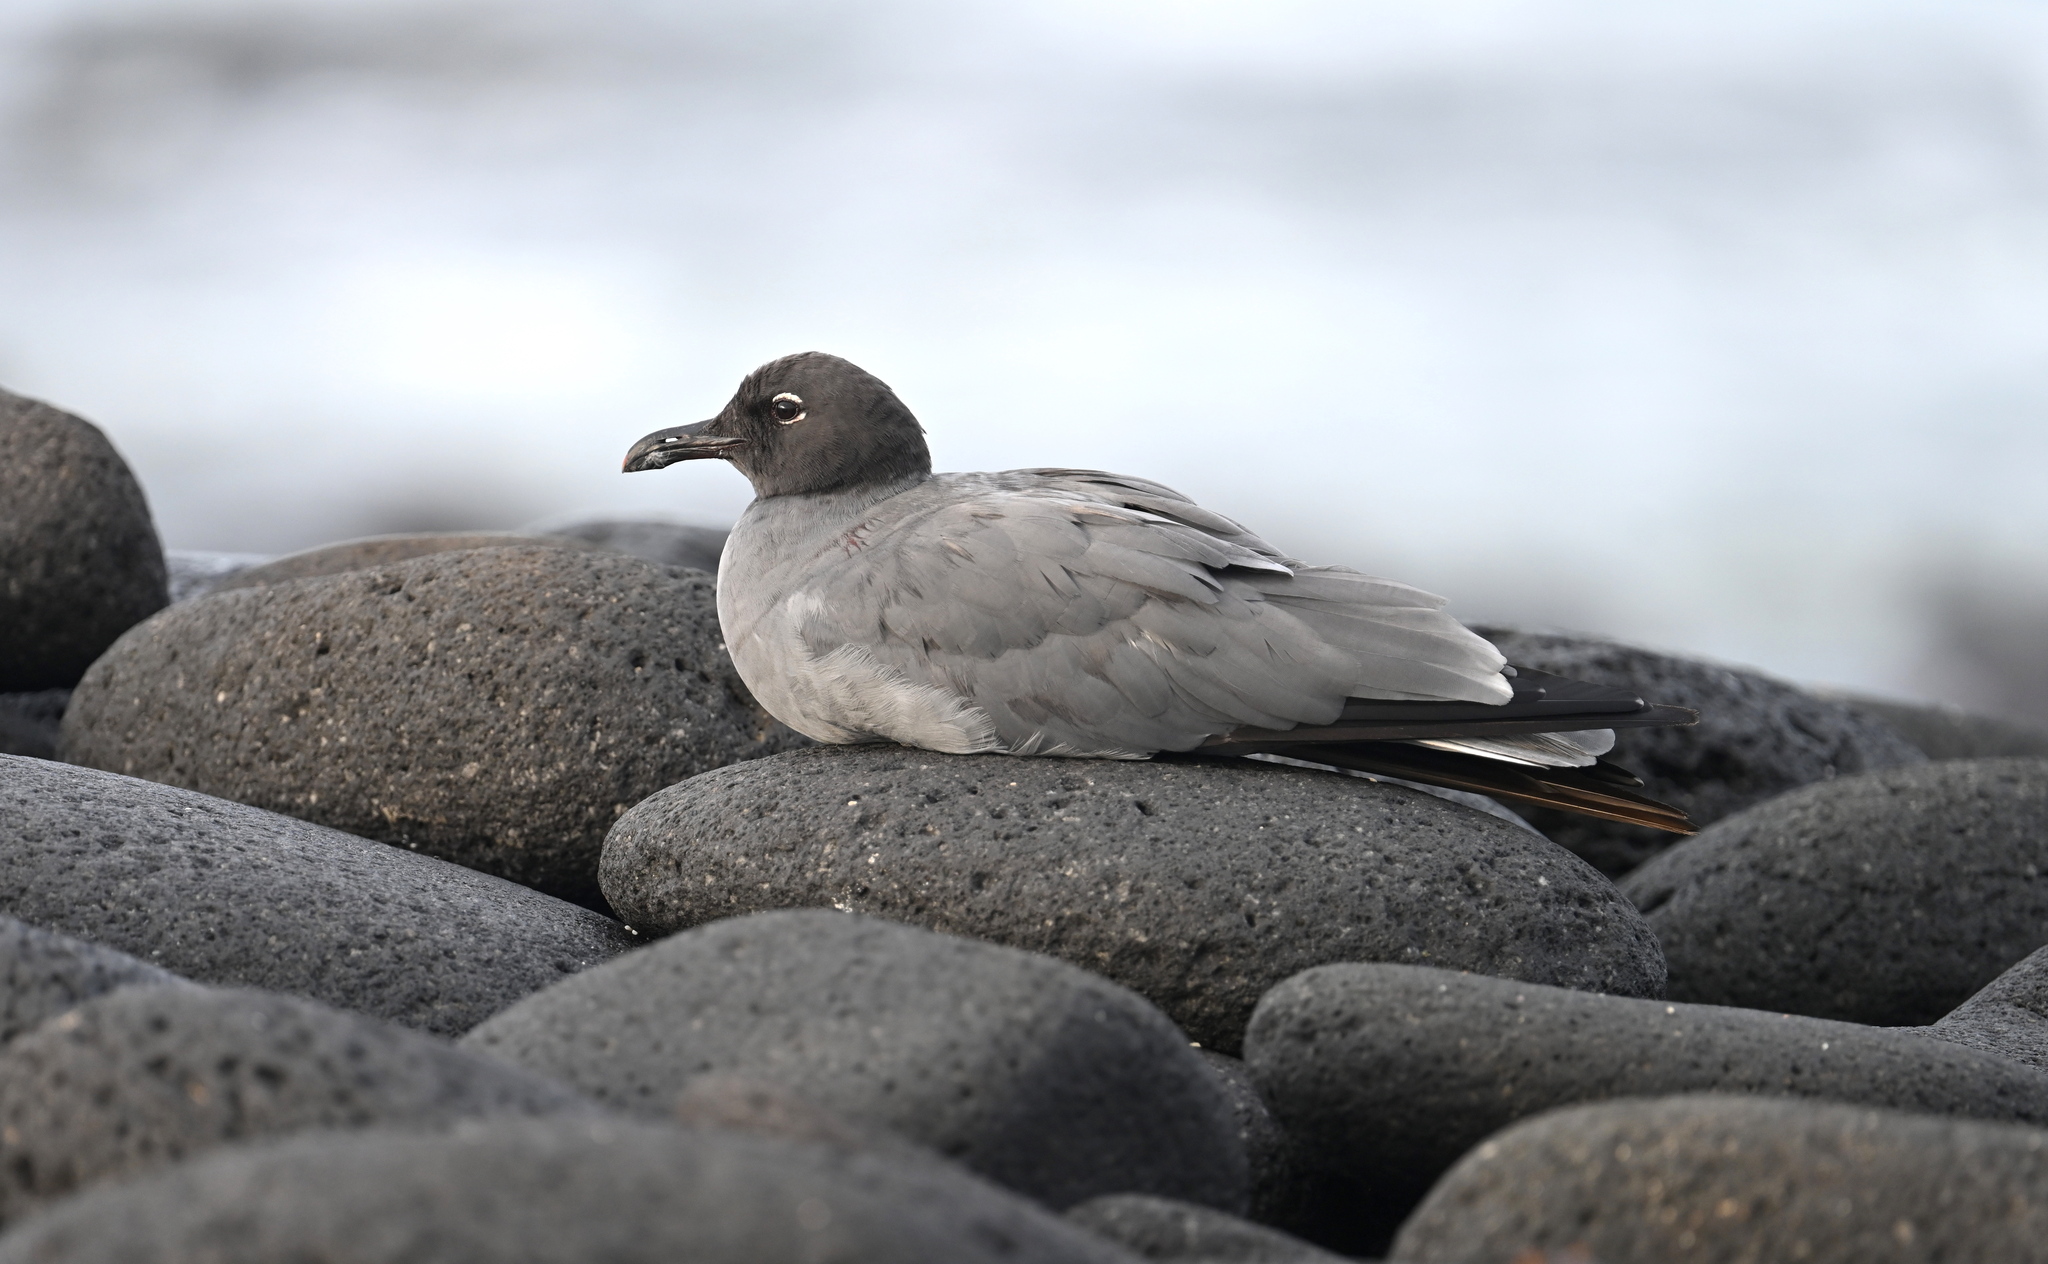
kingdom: Animalia
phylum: Chordata
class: Aves
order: Charadriiformes
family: Laridae
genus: Leucophaeus
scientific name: Leucophaeus fuliginosus
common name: Lava gull
